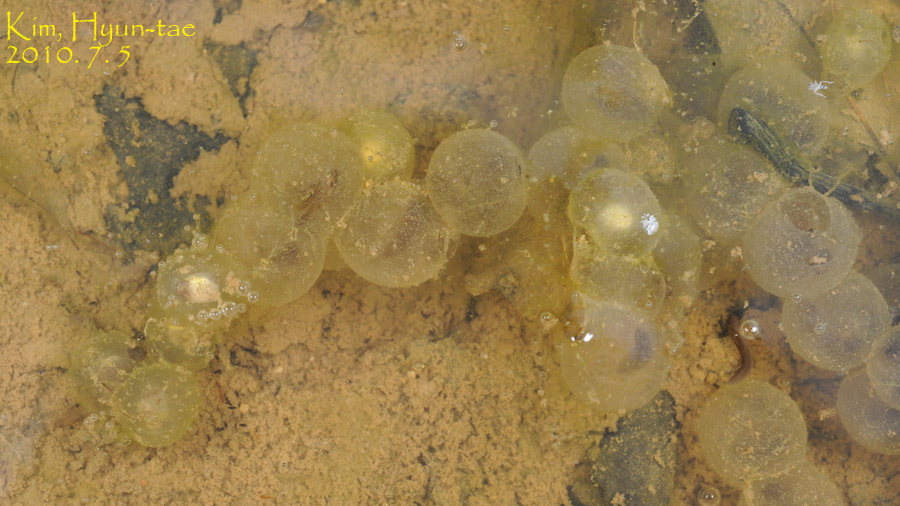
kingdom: Animalia
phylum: Chordata
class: Amphibia
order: Anura
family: Bombinatoridae
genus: Bombina
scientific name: Bombina orientalis
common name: Oriental firebelly toad
